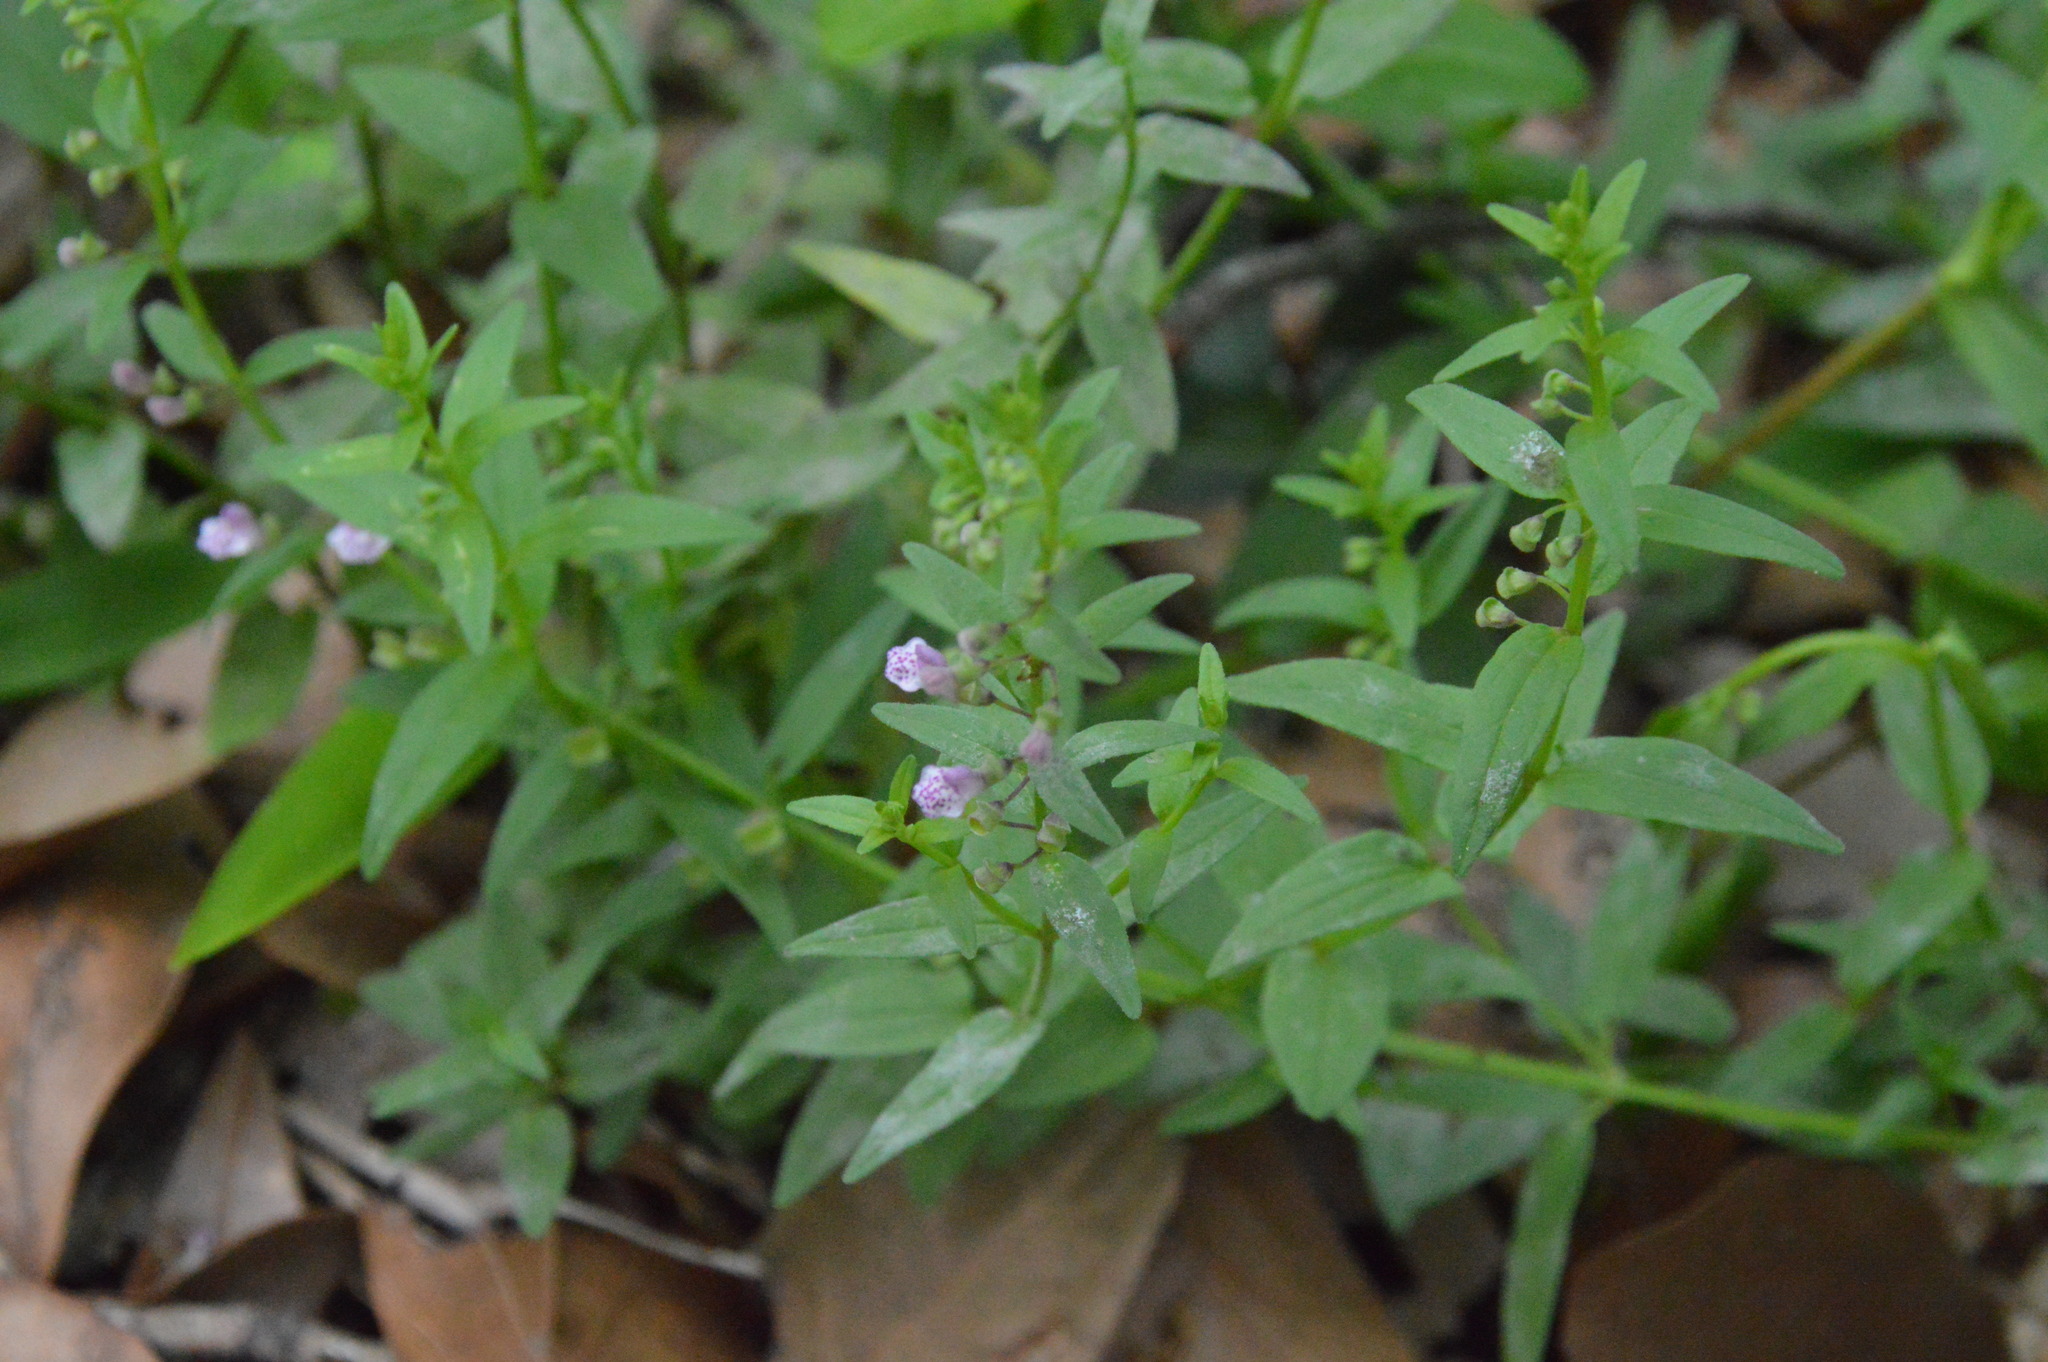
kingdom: Plantae
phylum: Tracheophyta
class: Magnoliopsida
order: Lamiales
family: Lamiaceae
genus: Scutellaria
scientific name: Scutellaria racemosa
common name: South american skullcap
